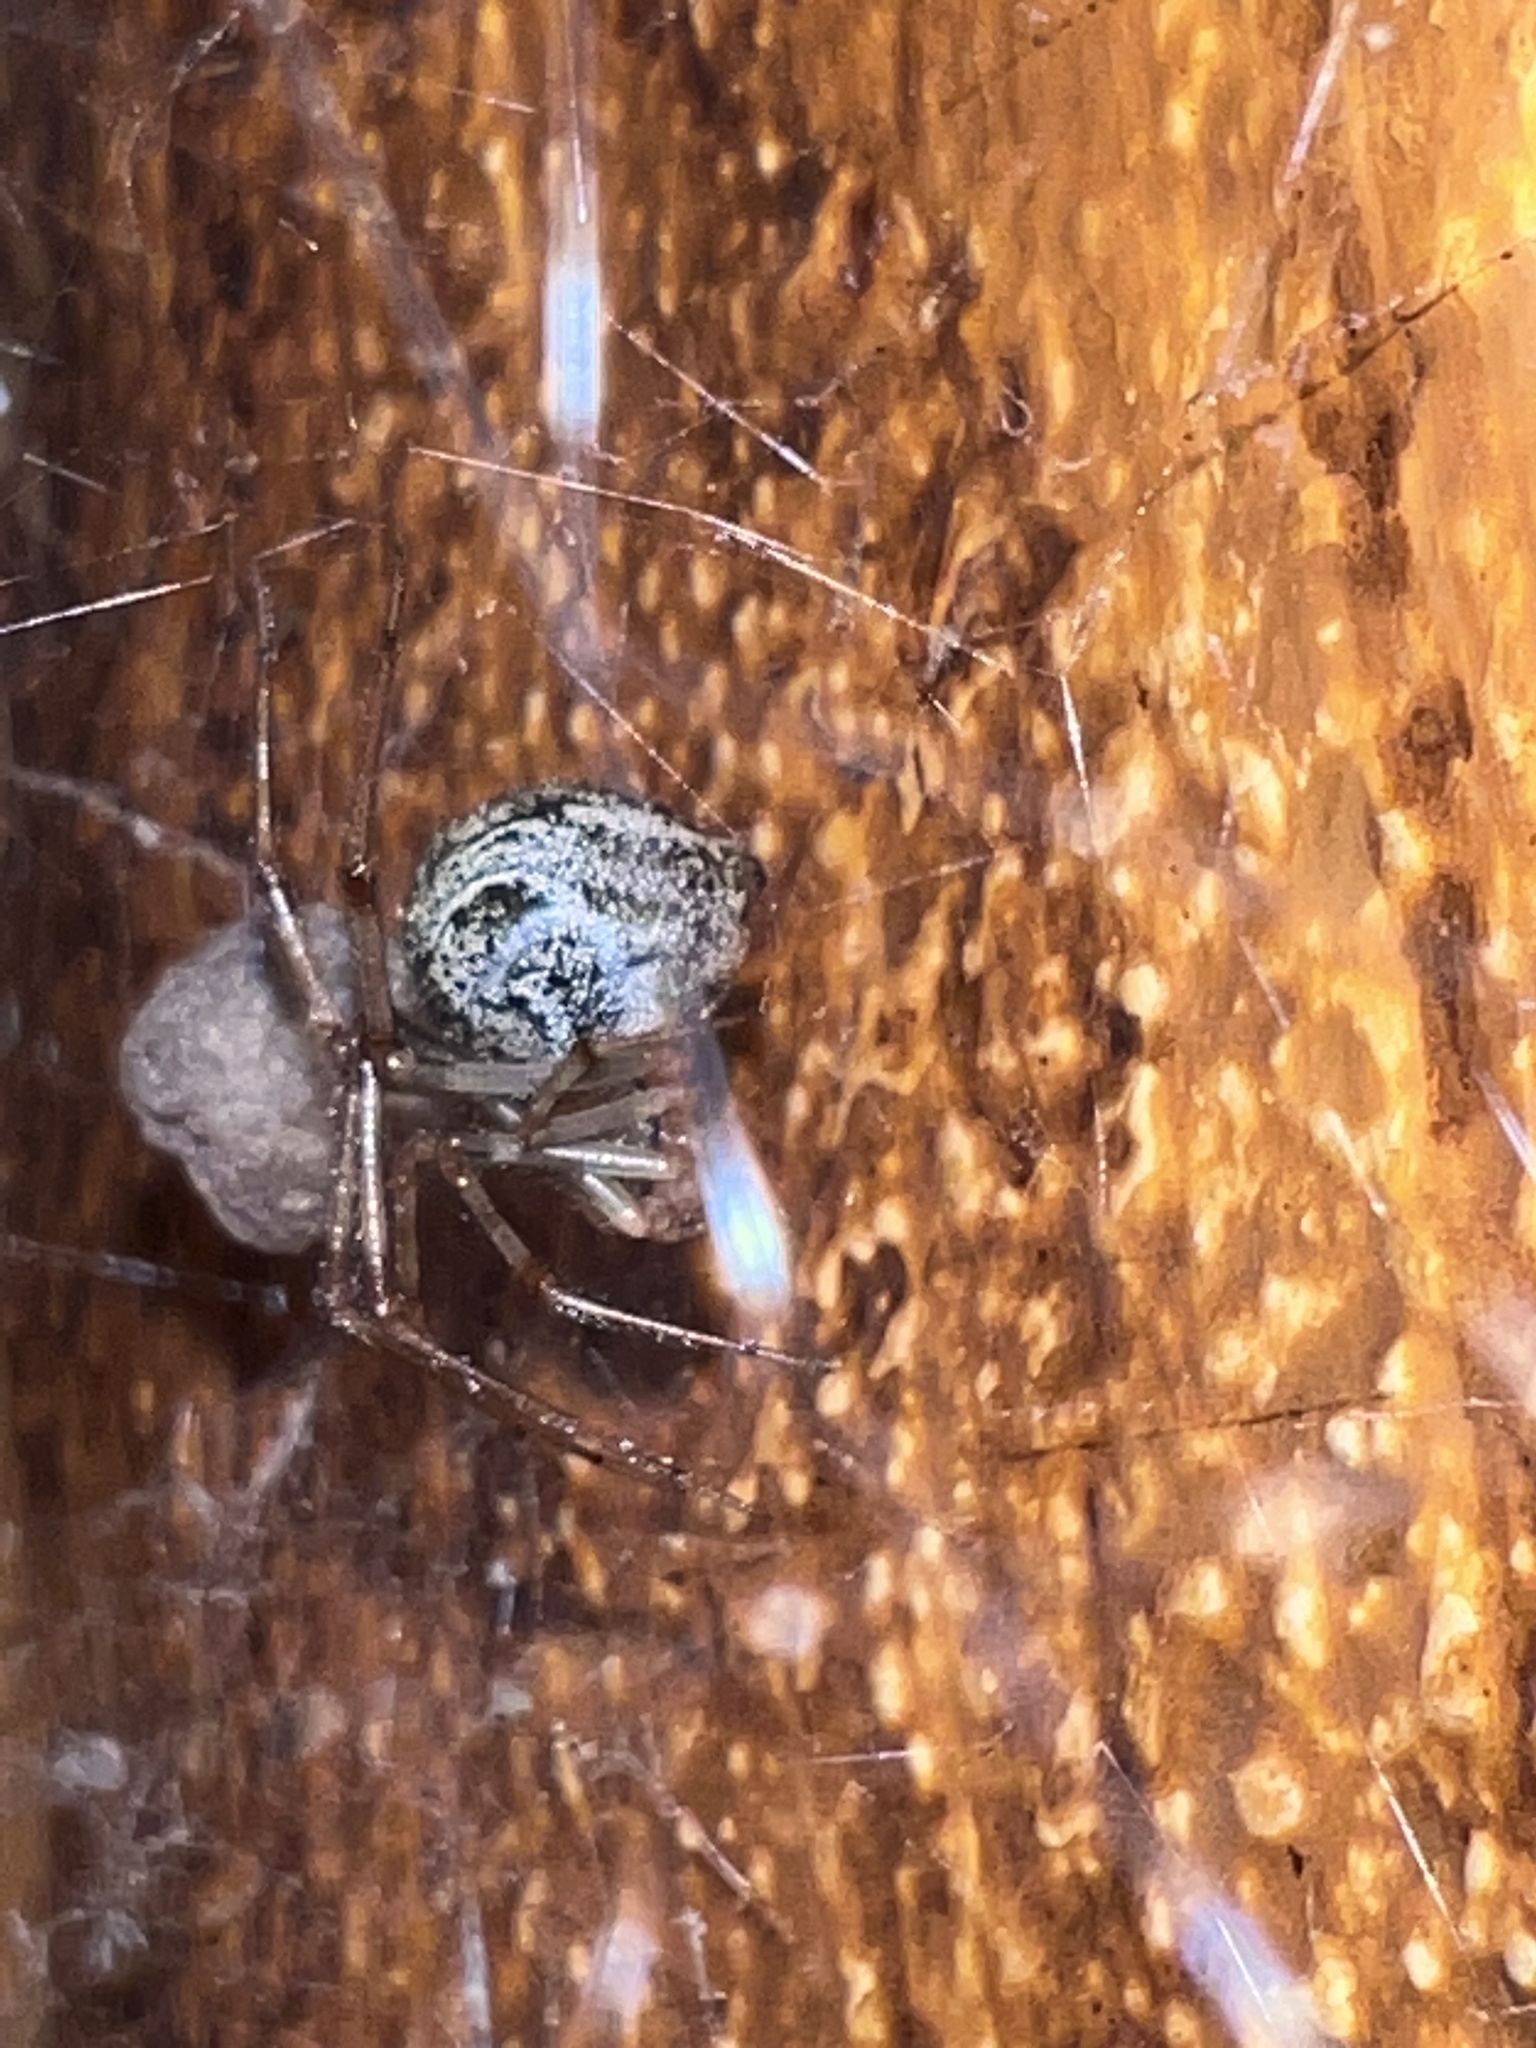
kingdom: Animalia
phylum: Arthropoda
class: Arachnida
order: Araneae
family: Theridiidae
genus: Parasteatoda
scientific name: Parasteatoda tepidariorum
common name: Common house spider
